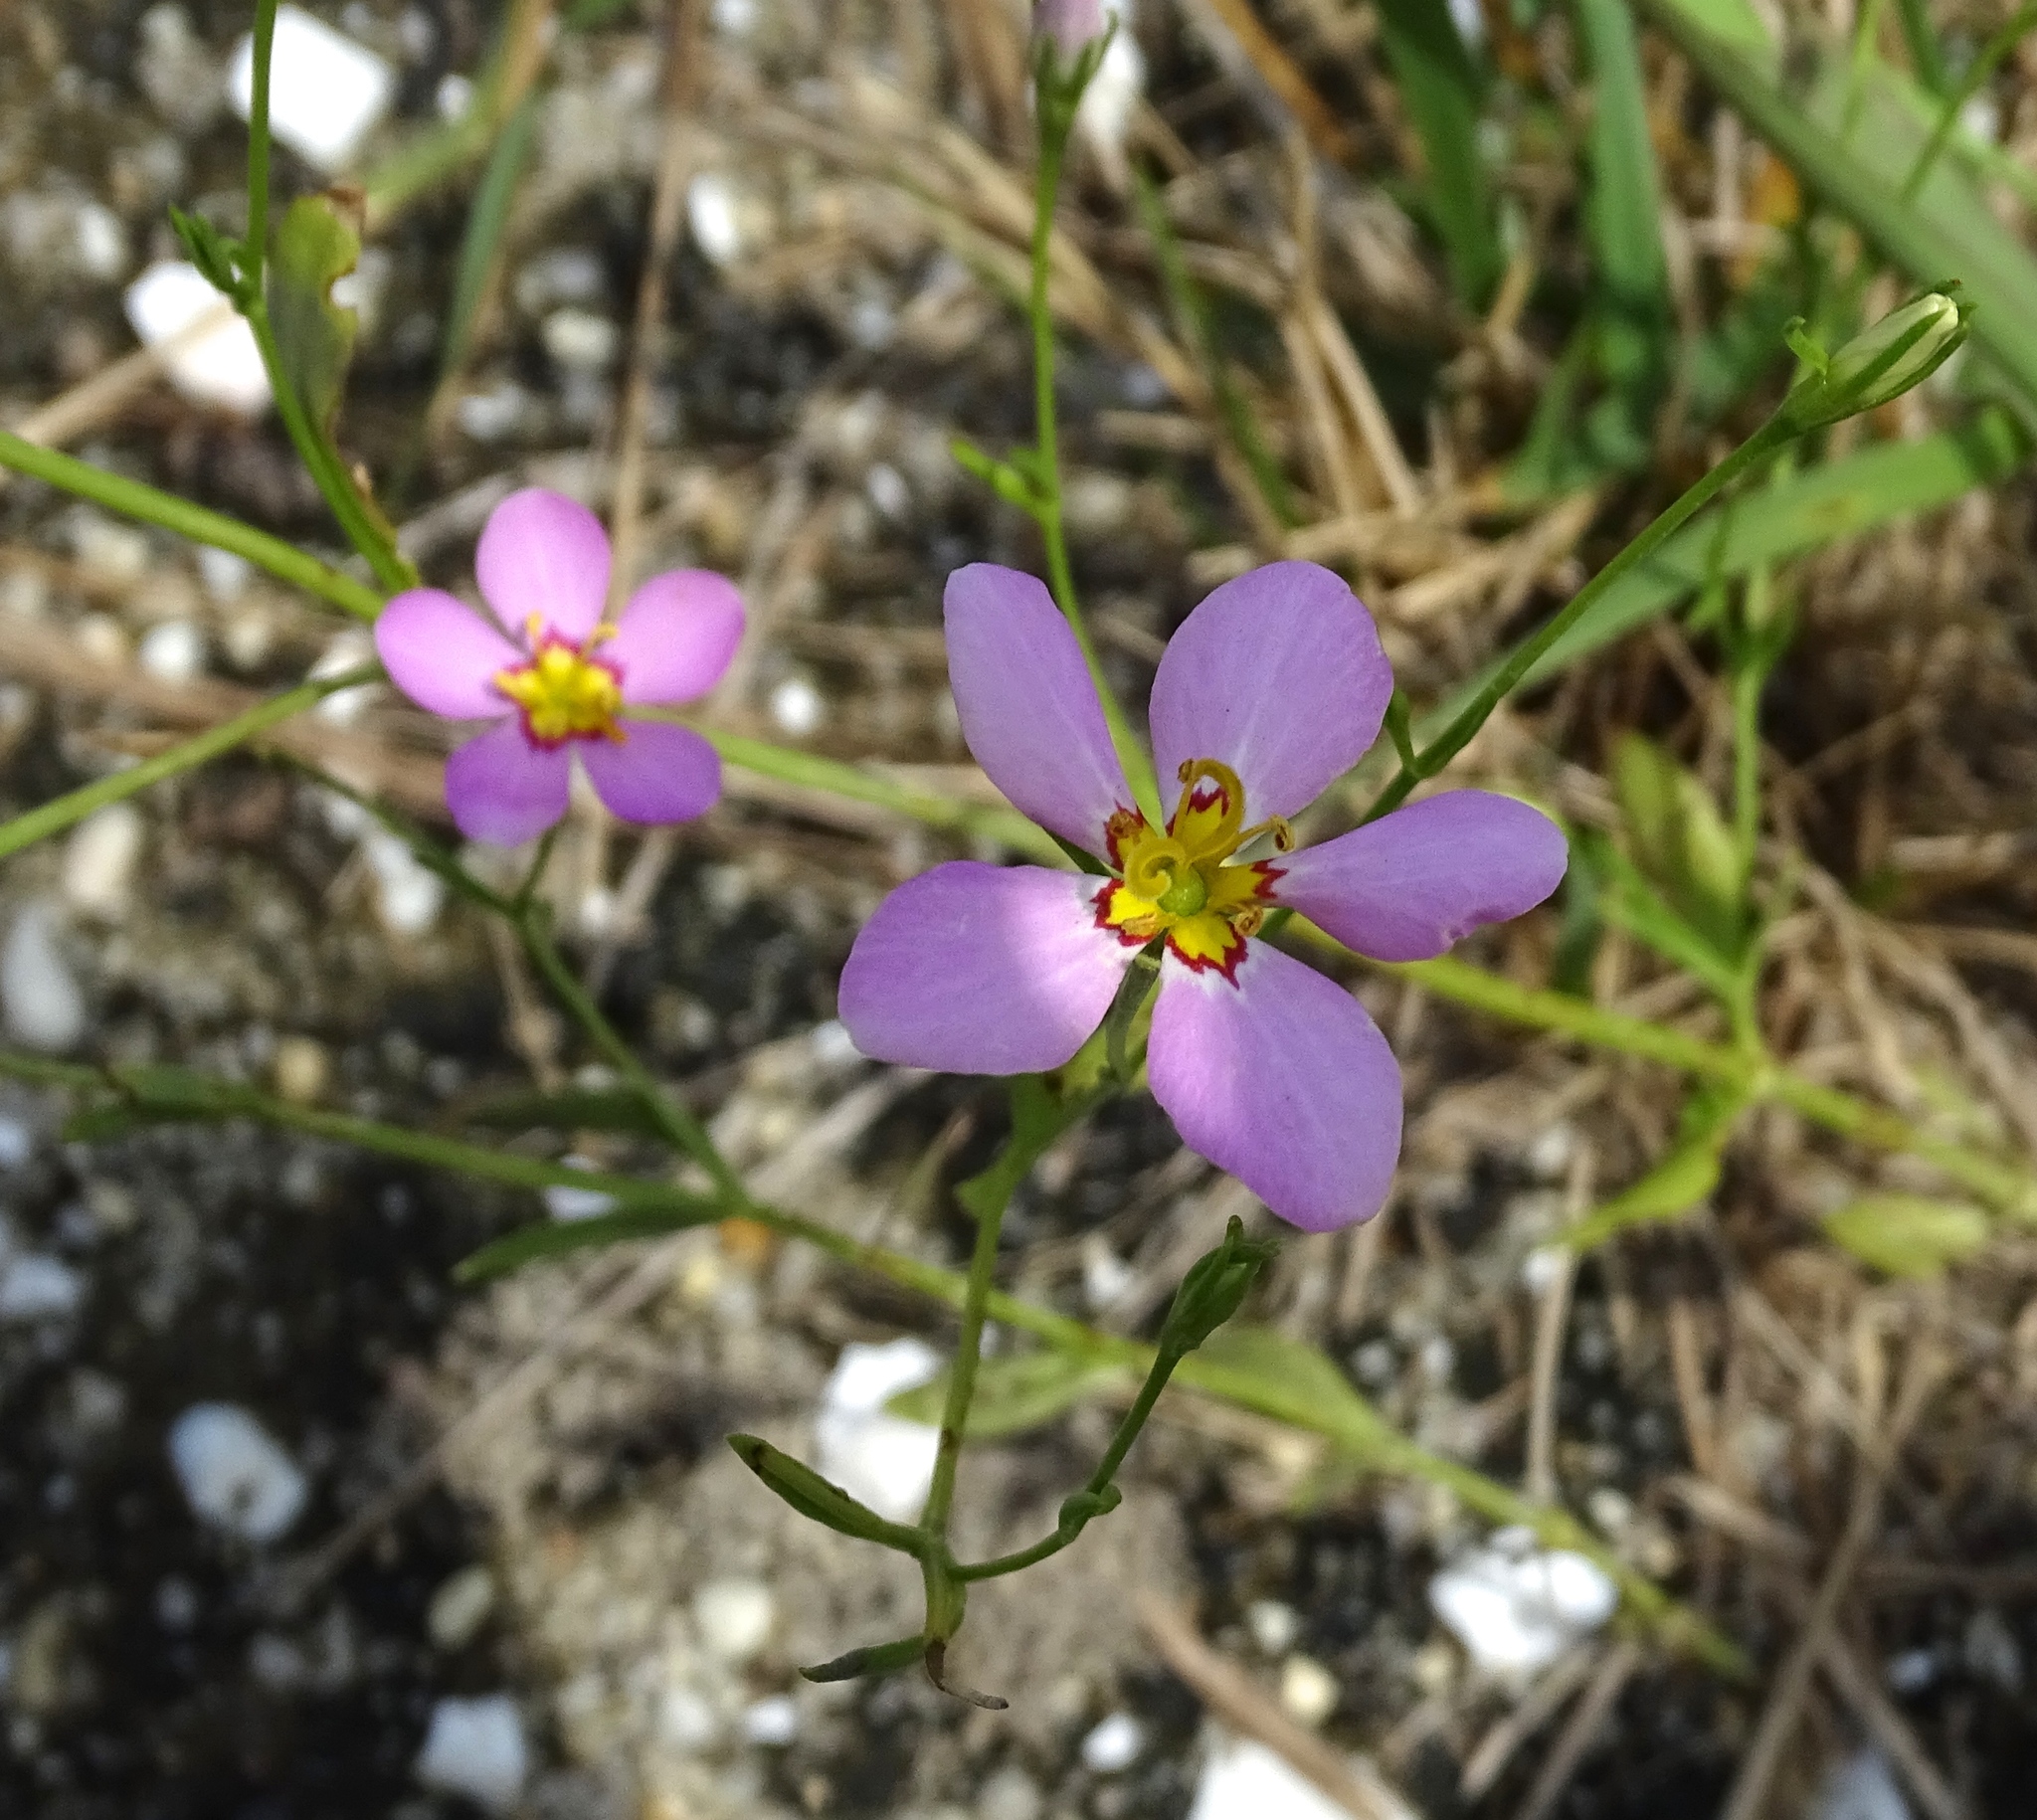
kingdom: Plantae
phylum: Tracheophyta
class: Magnoliopsida
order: Gentianales
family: Gentianaceae
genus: Sabatia
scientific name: Sabatia stellaris
